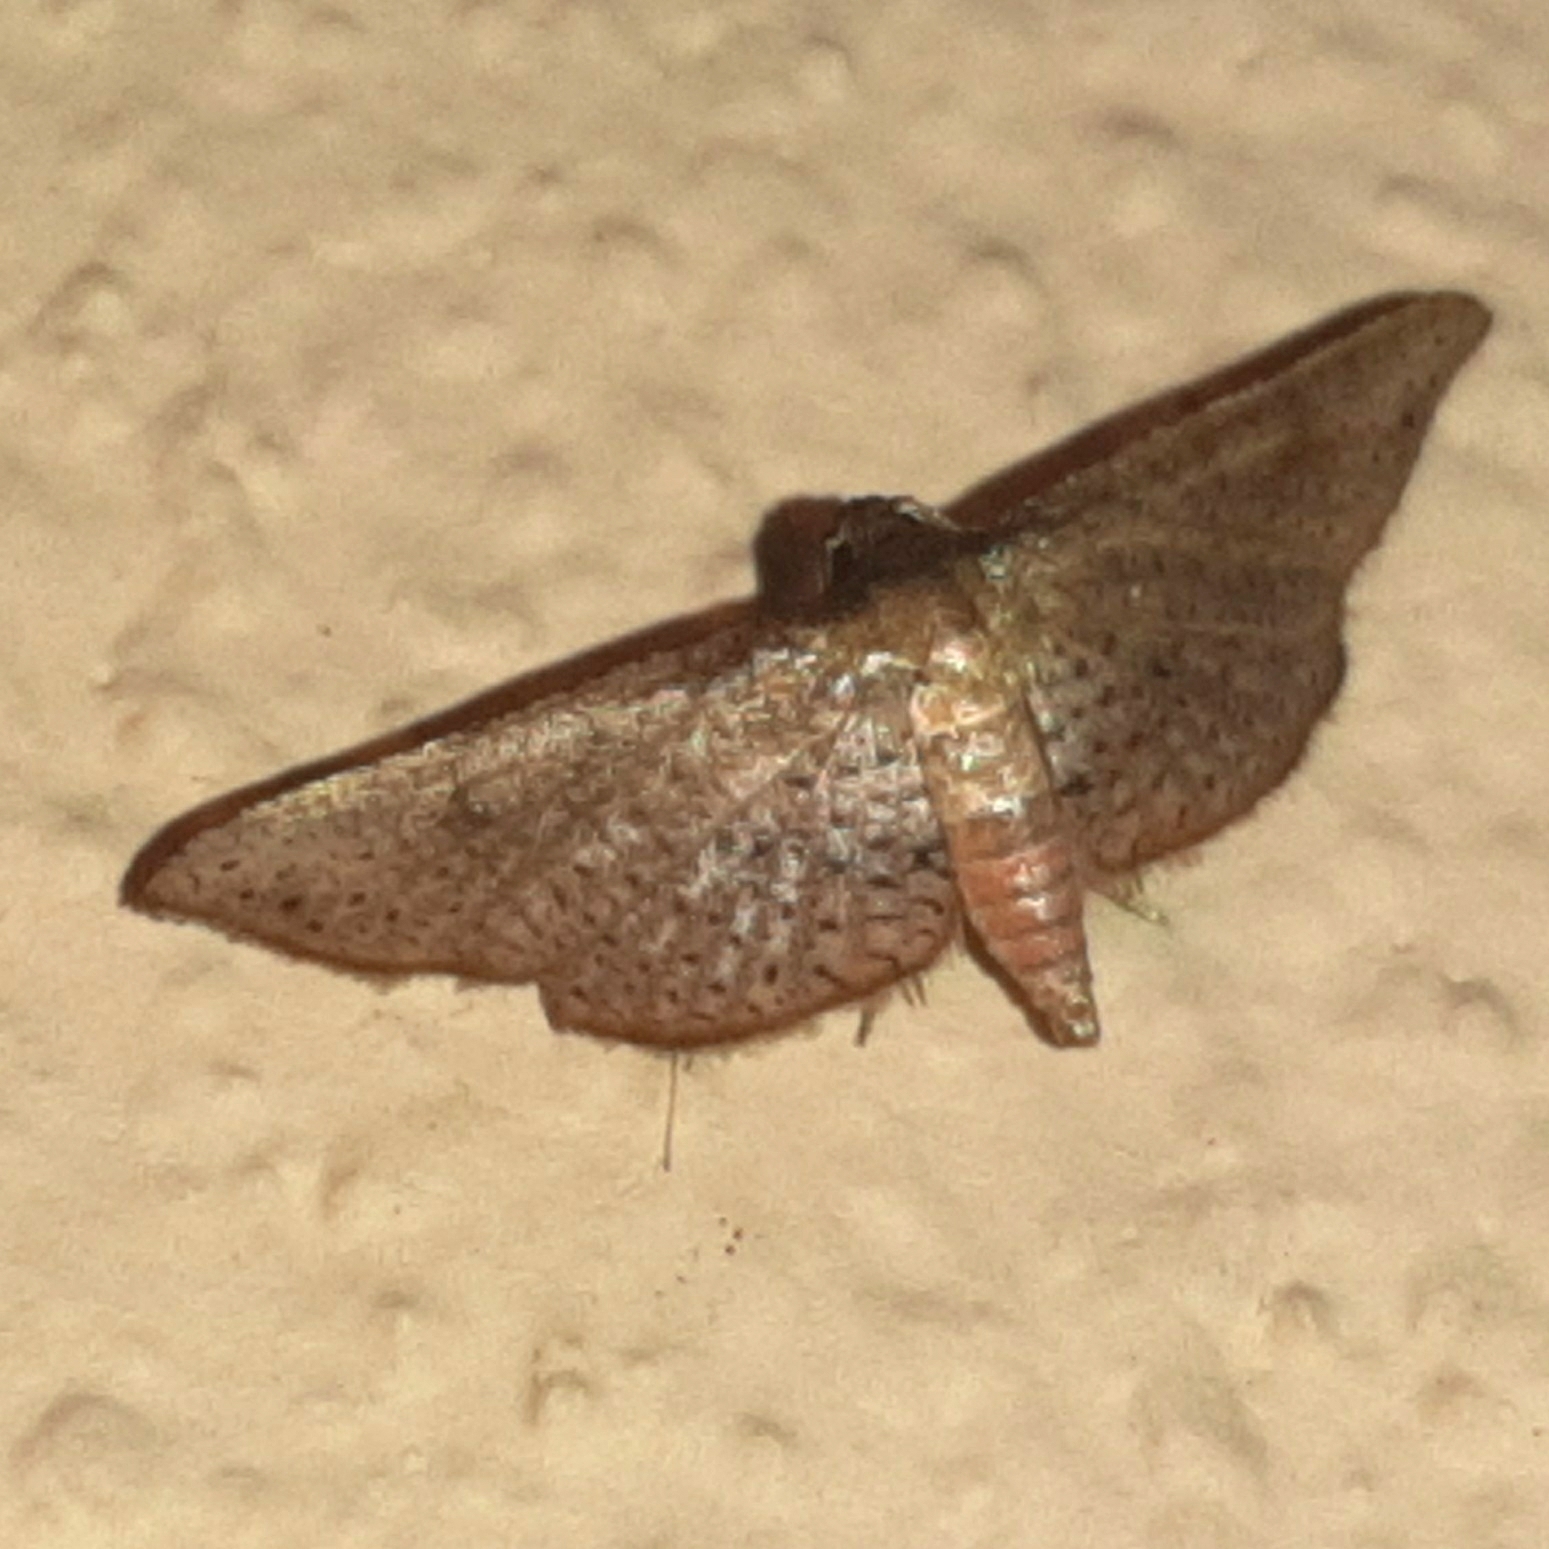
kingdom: Animalia
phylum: Arthropoda
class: Insecta
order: Lepidoptera
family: Thyrididae
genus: Rhodoneura
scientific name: Rhodoneura thiastoralis
